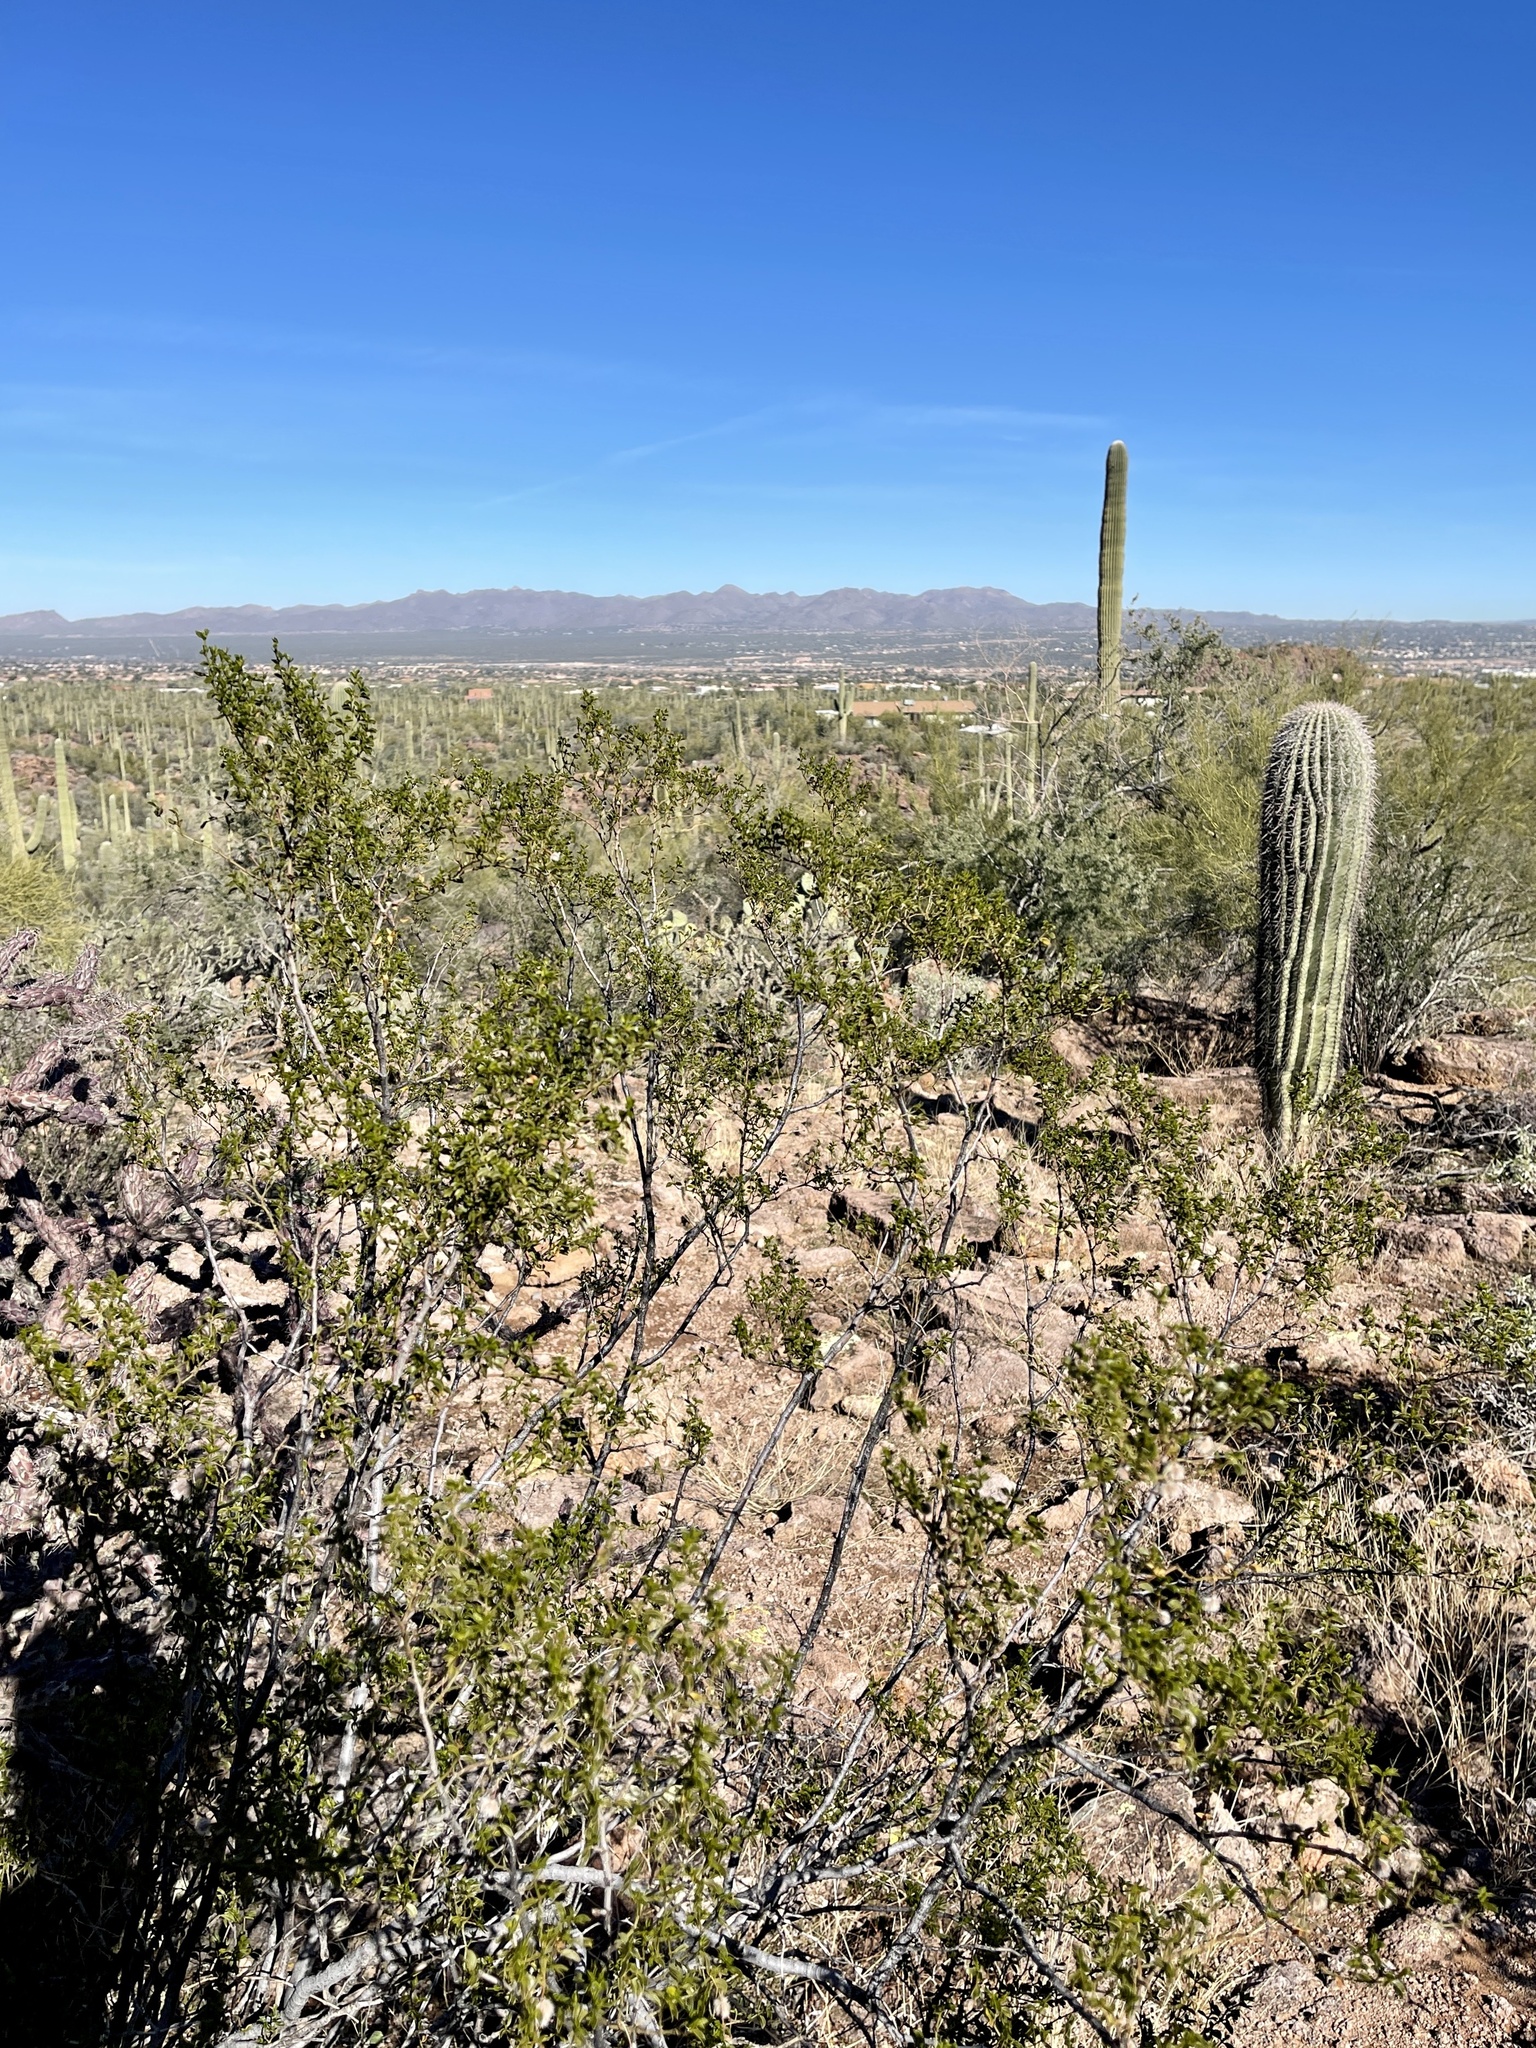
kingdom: Plantae
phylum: Tracheophyta
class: Magnoliopsida
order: Zygophyllales
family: Zygophyllaceae
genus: Larrea
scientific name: Larrea tridentata
